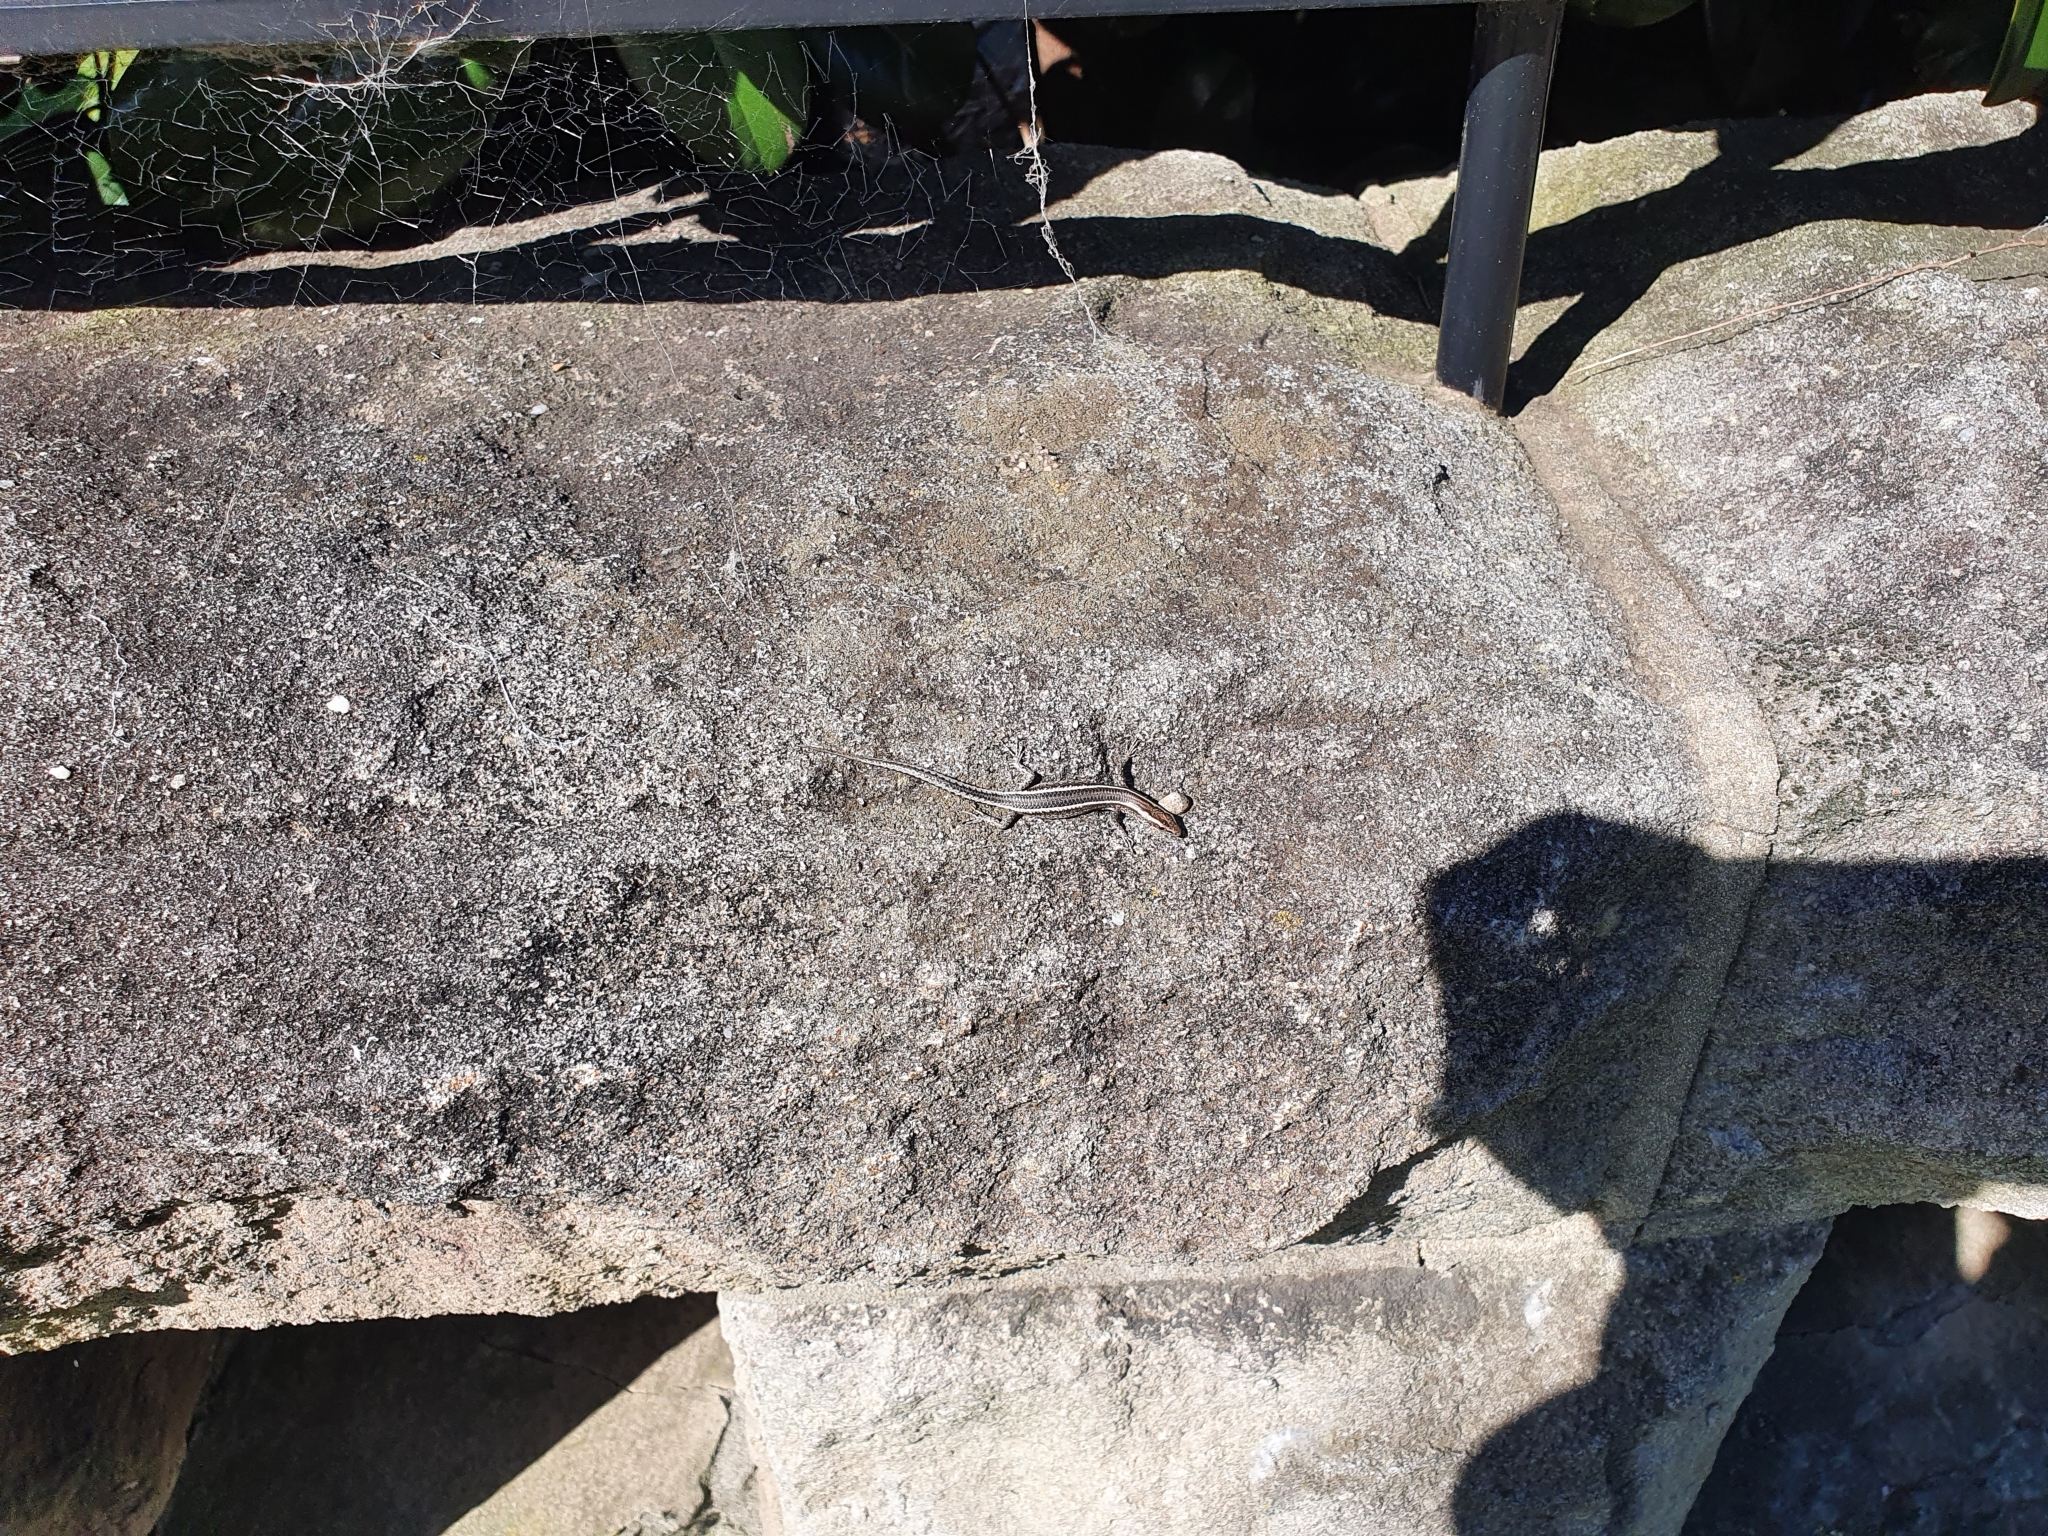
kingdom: Animalia
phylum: Chordata
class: Squamata
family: Scincidae
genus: Cryptoblepharus
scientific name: Cryptoblepharus pulcher
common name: Elegant snake-eyed skink
